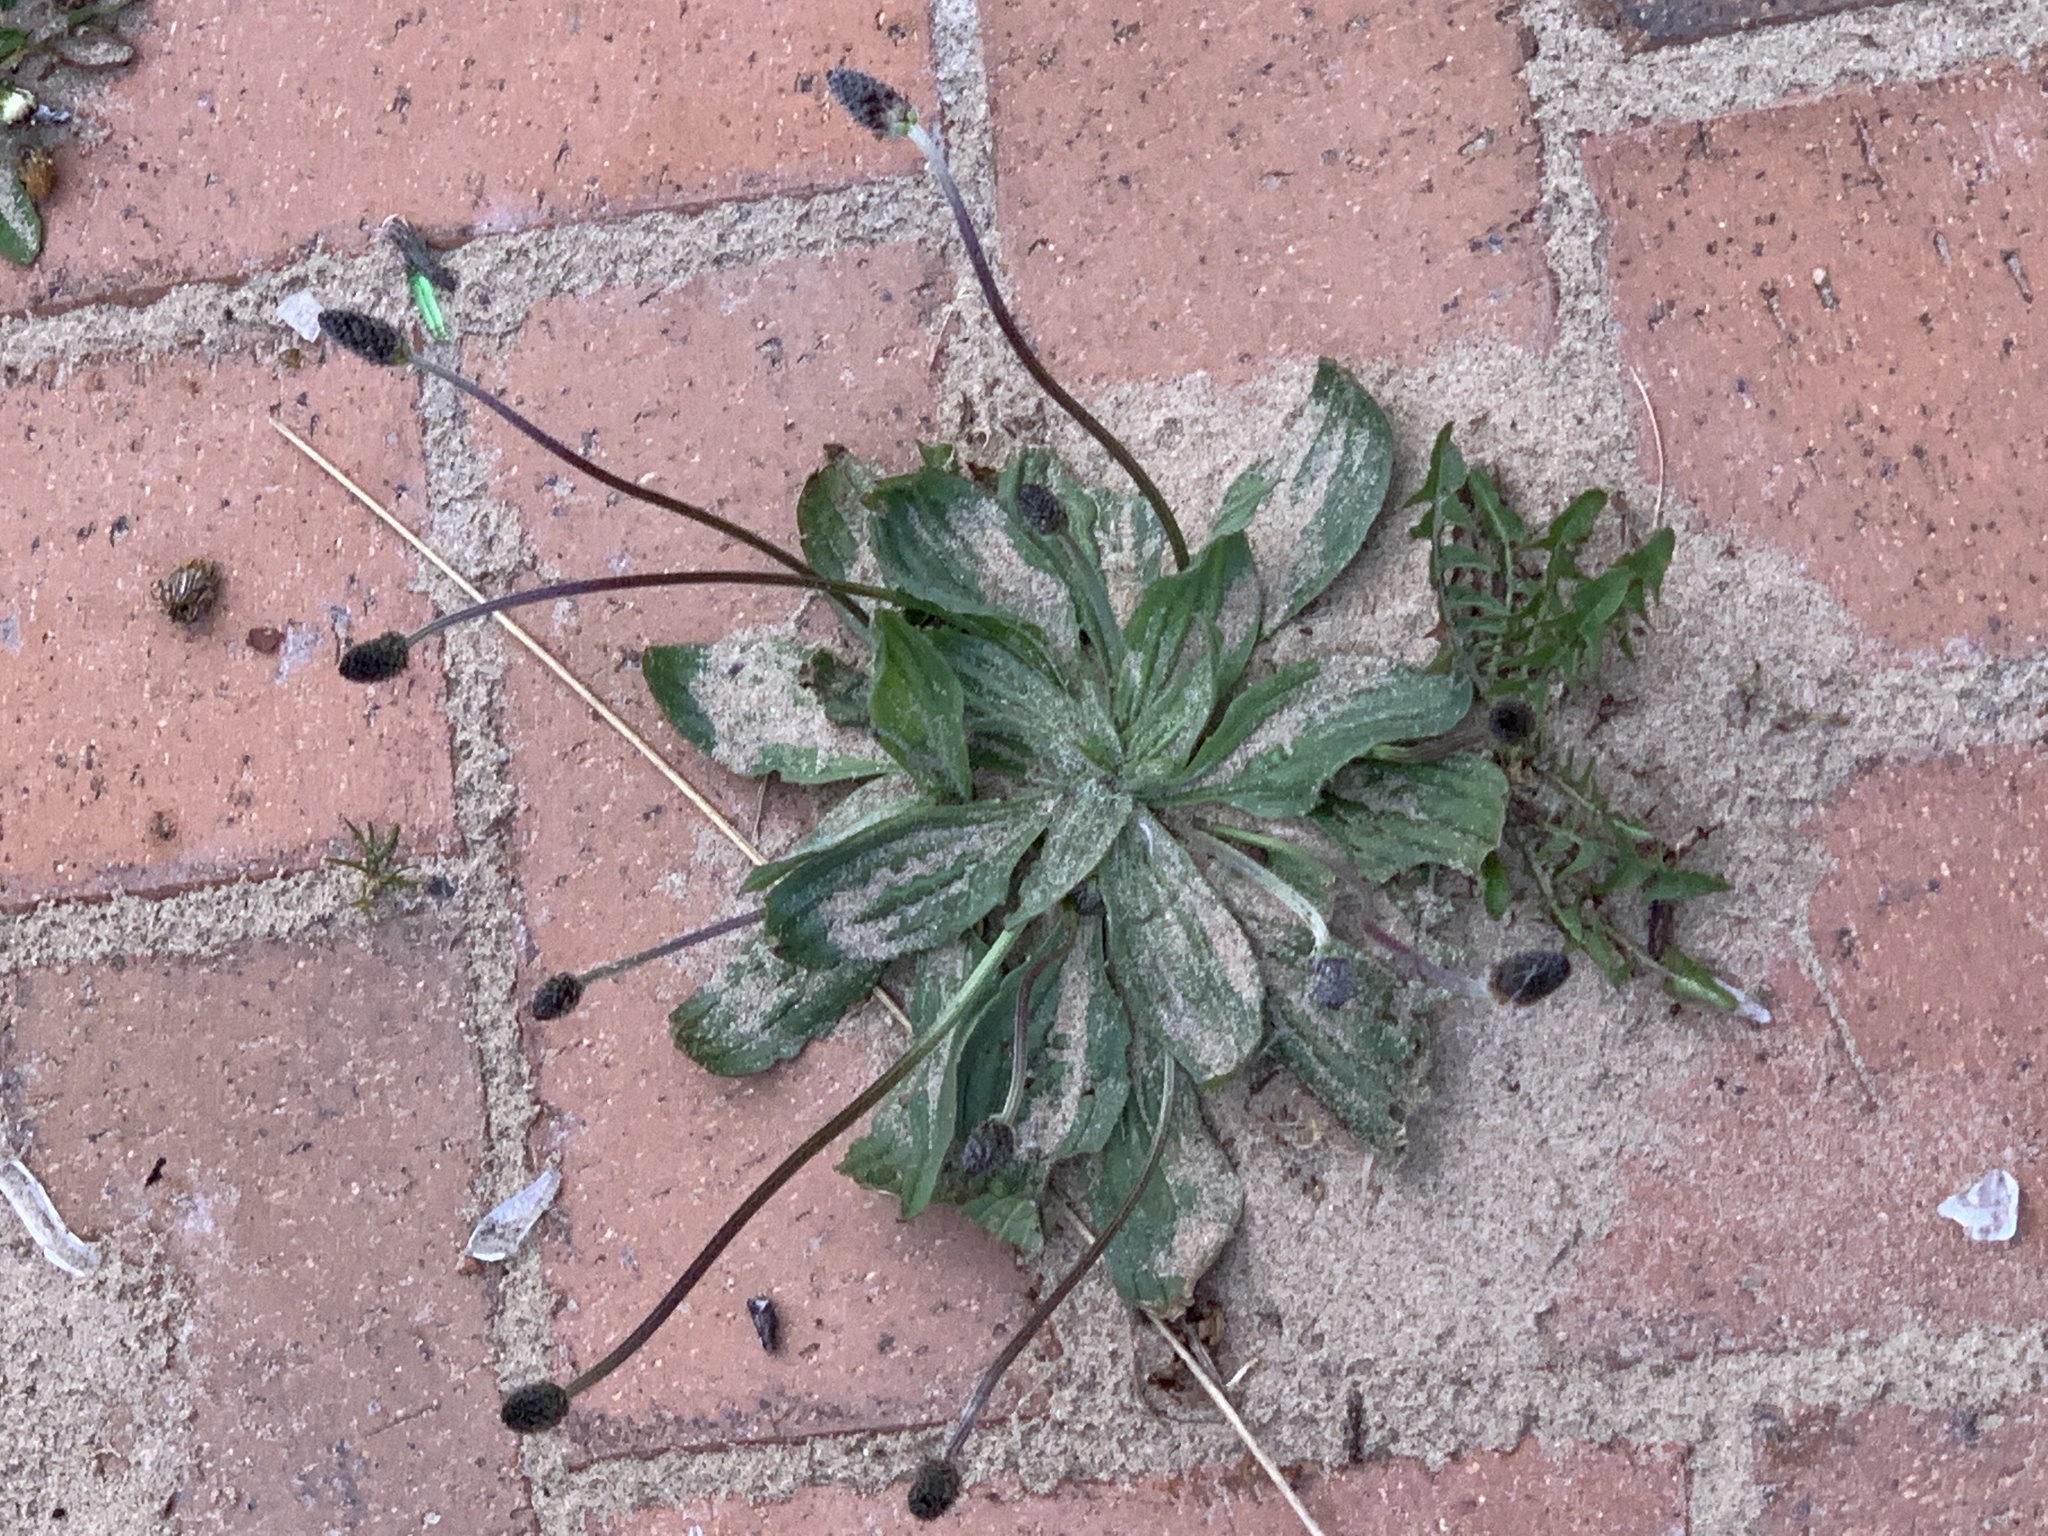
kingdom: Plantae
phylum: Tracheophyta
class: Magnoliopsida
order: Lamiales
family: Plantaginaceae
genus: Plantago
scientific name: Plantago lanceolata
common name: Ribwort plantain
